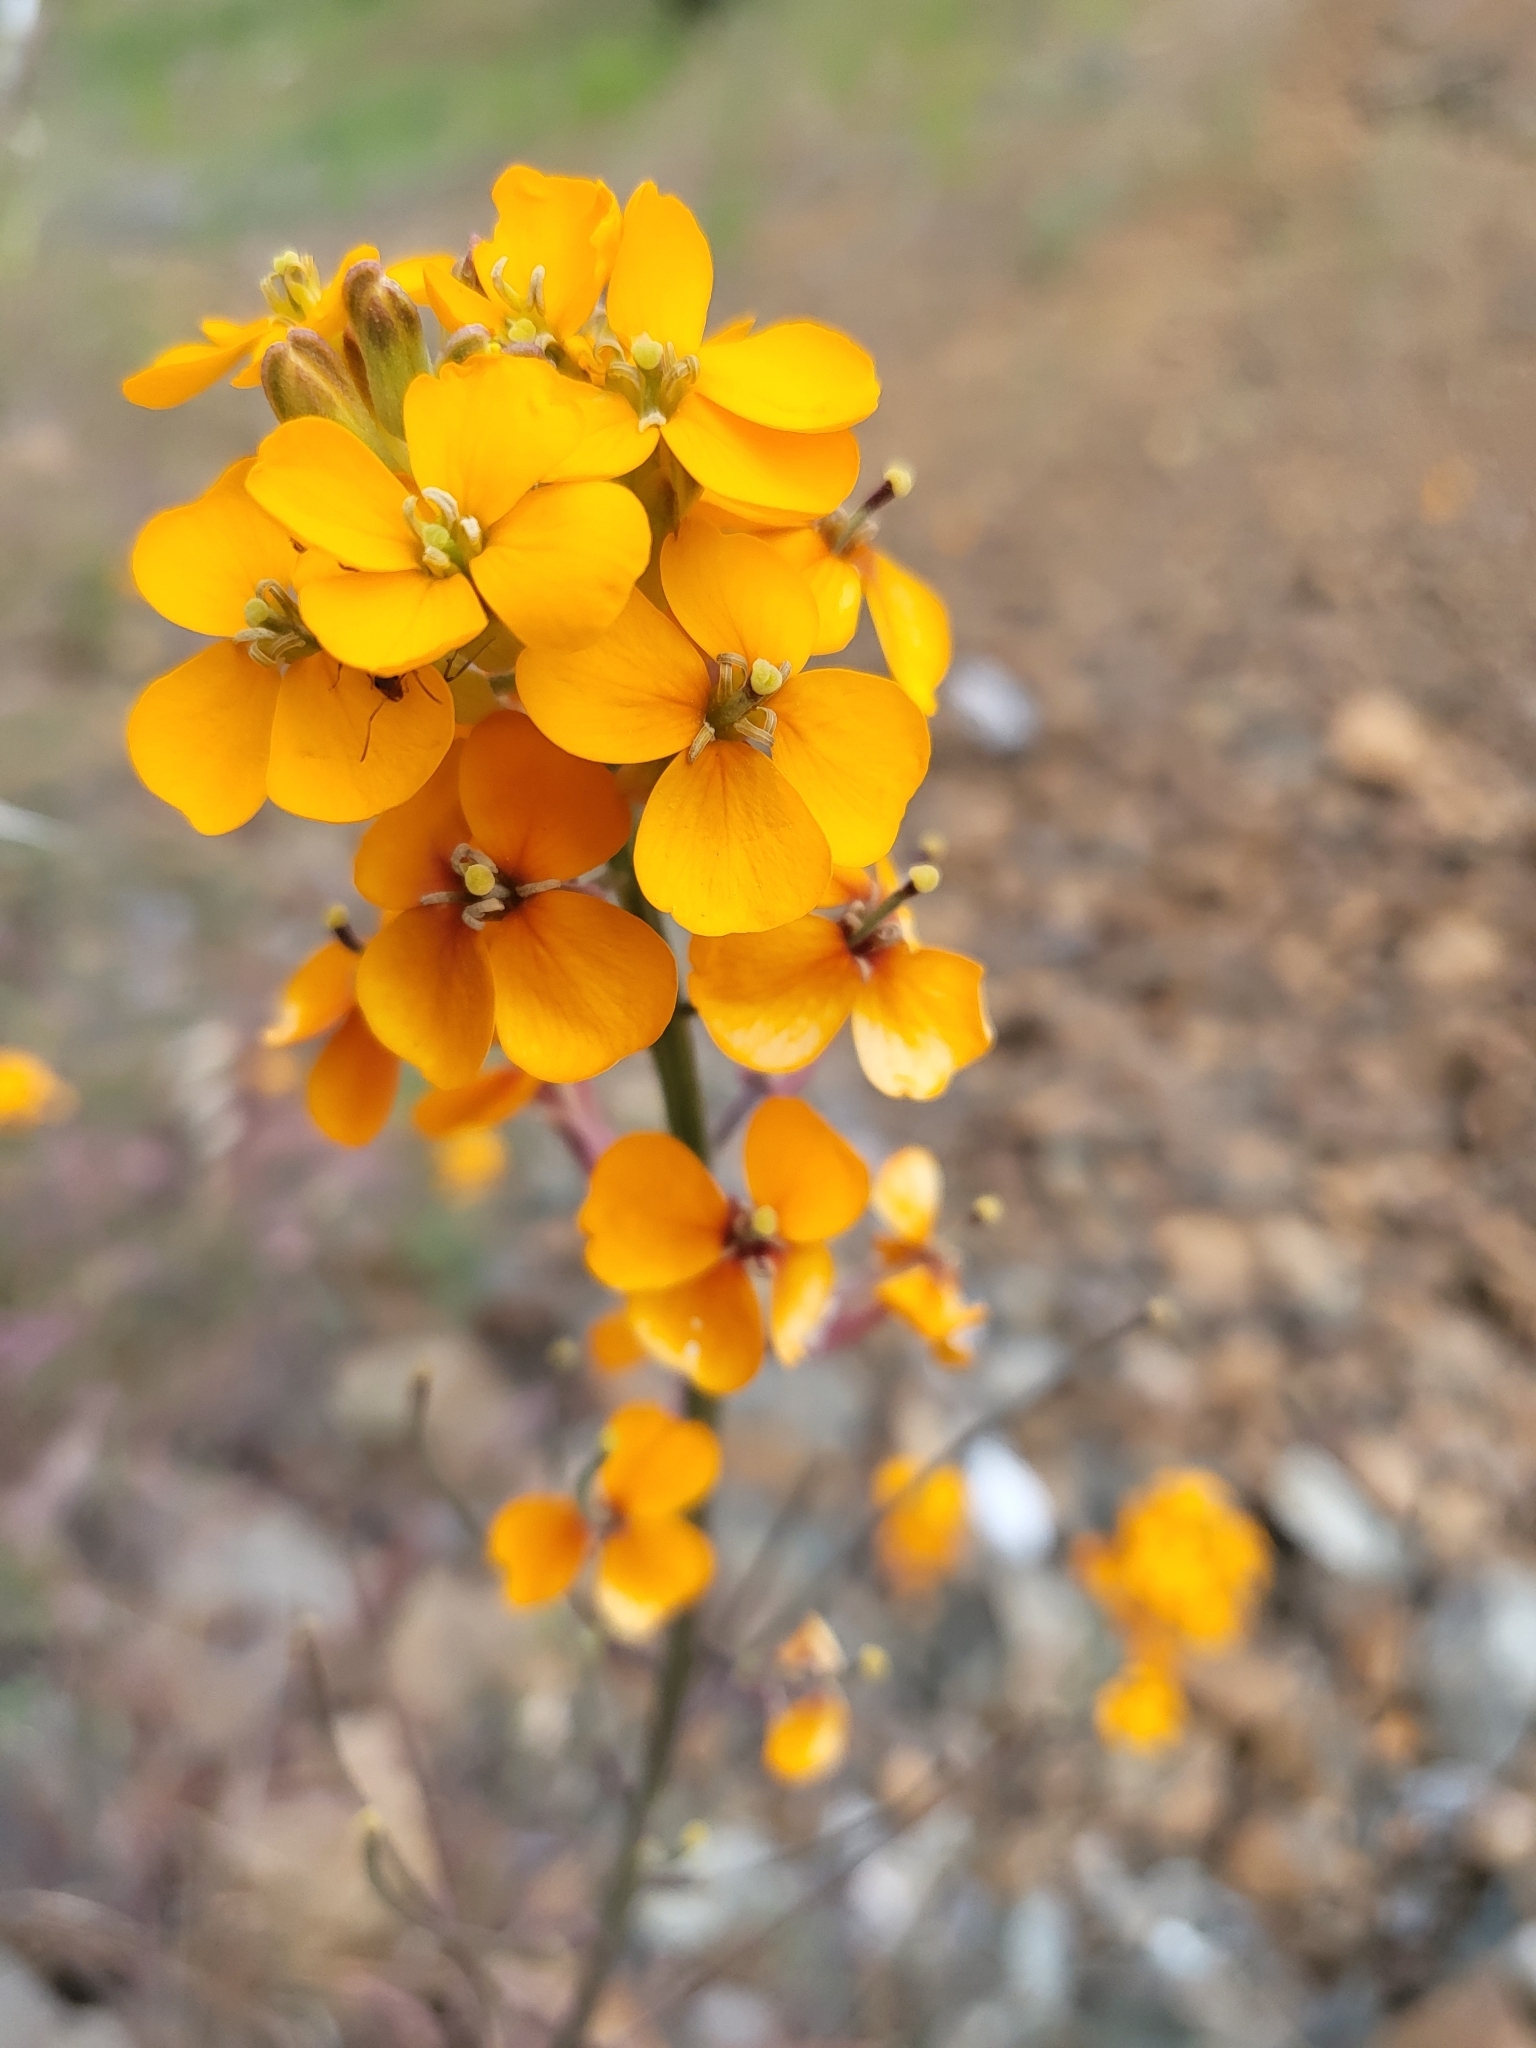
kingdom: Plantae
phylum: Tracheophyta
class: Magnoliopsida
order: Brassicales
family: Brassicaceae
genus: Erysimum
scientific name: Erysimum capitatum
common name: Western wallflower
